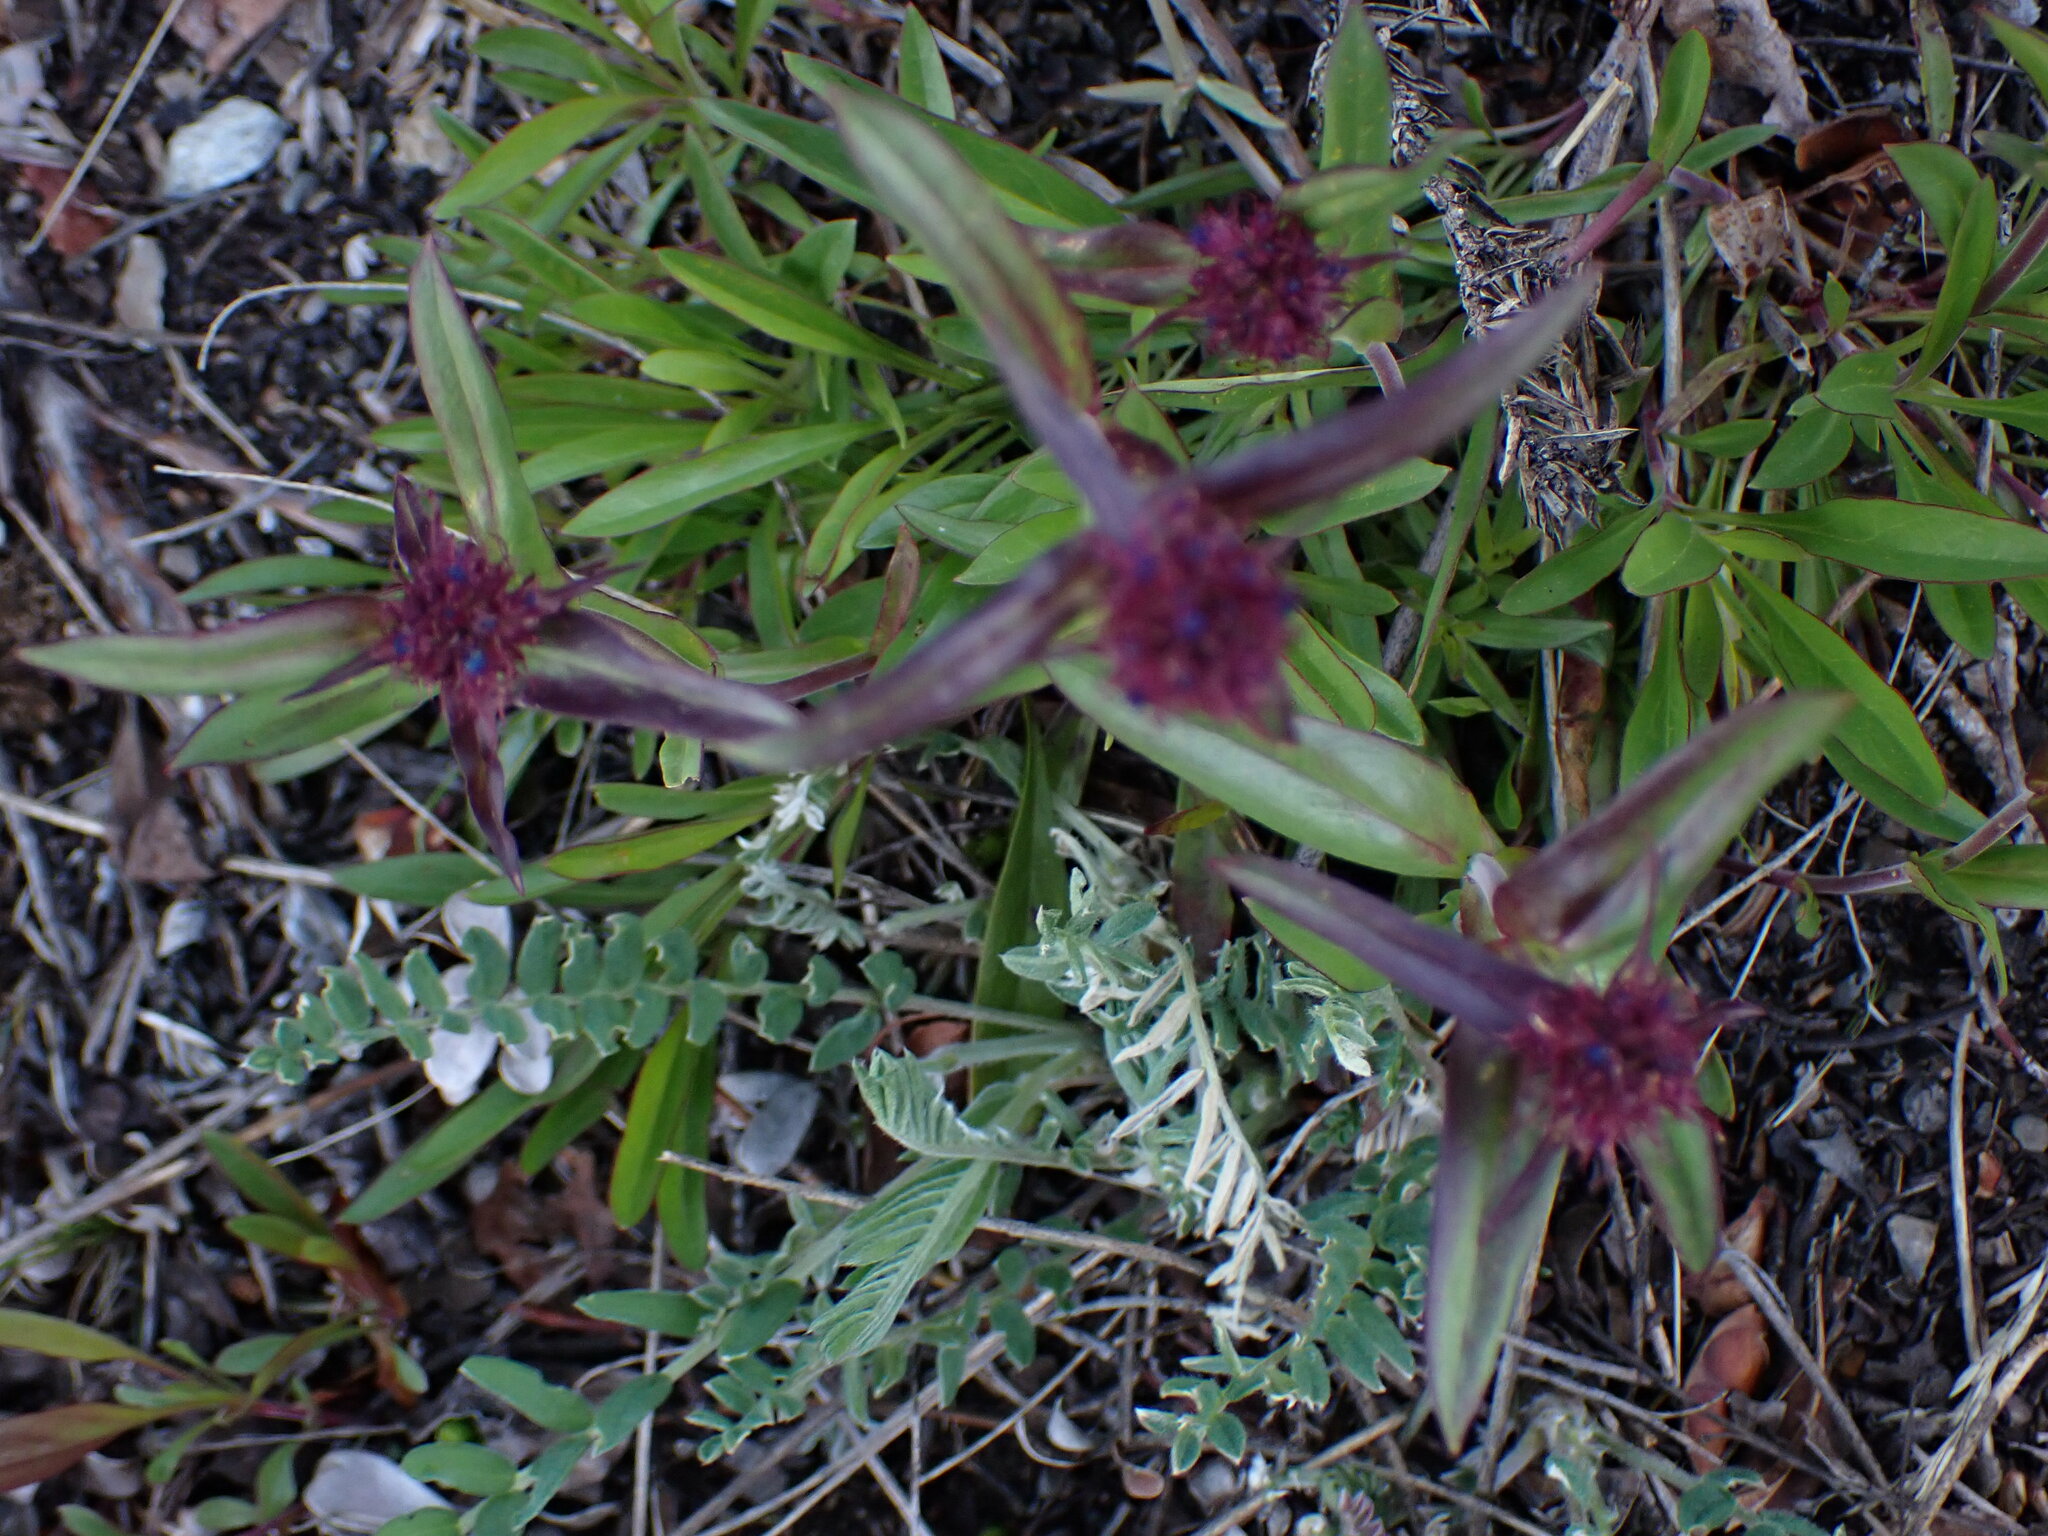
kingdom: Plantae
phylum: Tracheophyta
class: Magnoliopsida
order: Lamiales
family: Plantaginaceae
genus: Penstemon
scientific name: Penstemon procerus
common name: Small-flower penstemon
